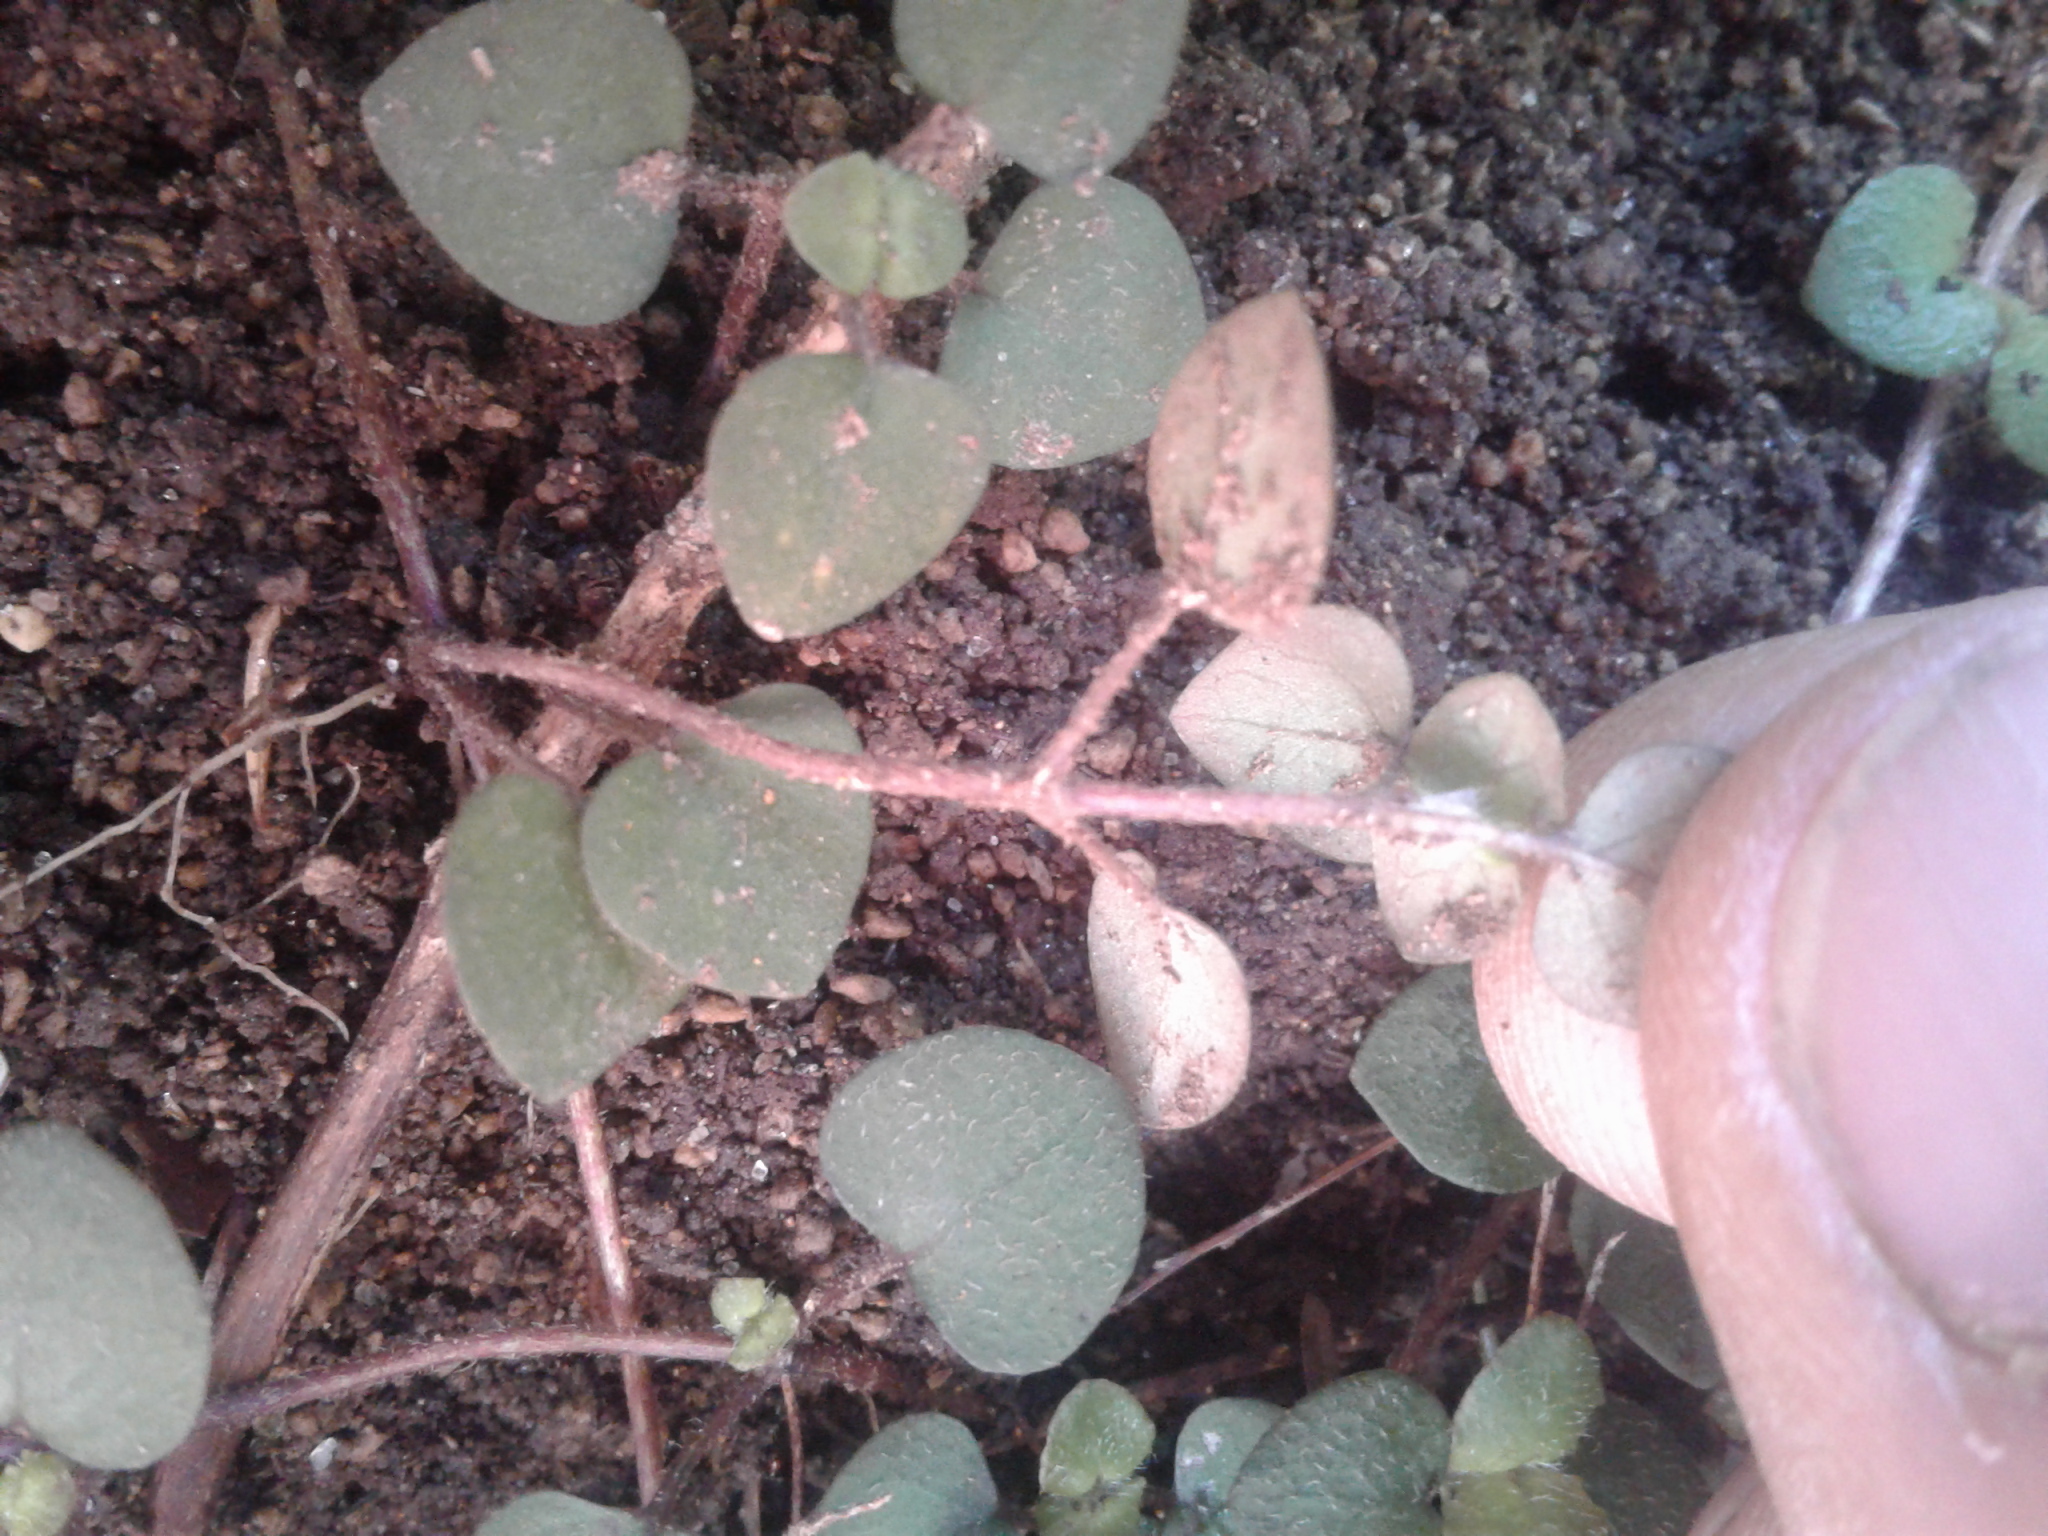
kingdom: Plantae
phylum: Tracheophyta
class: Magnoliopsida
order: Gentianales
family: Rubiaceae
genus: Nertera
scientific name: Nertera villosa
